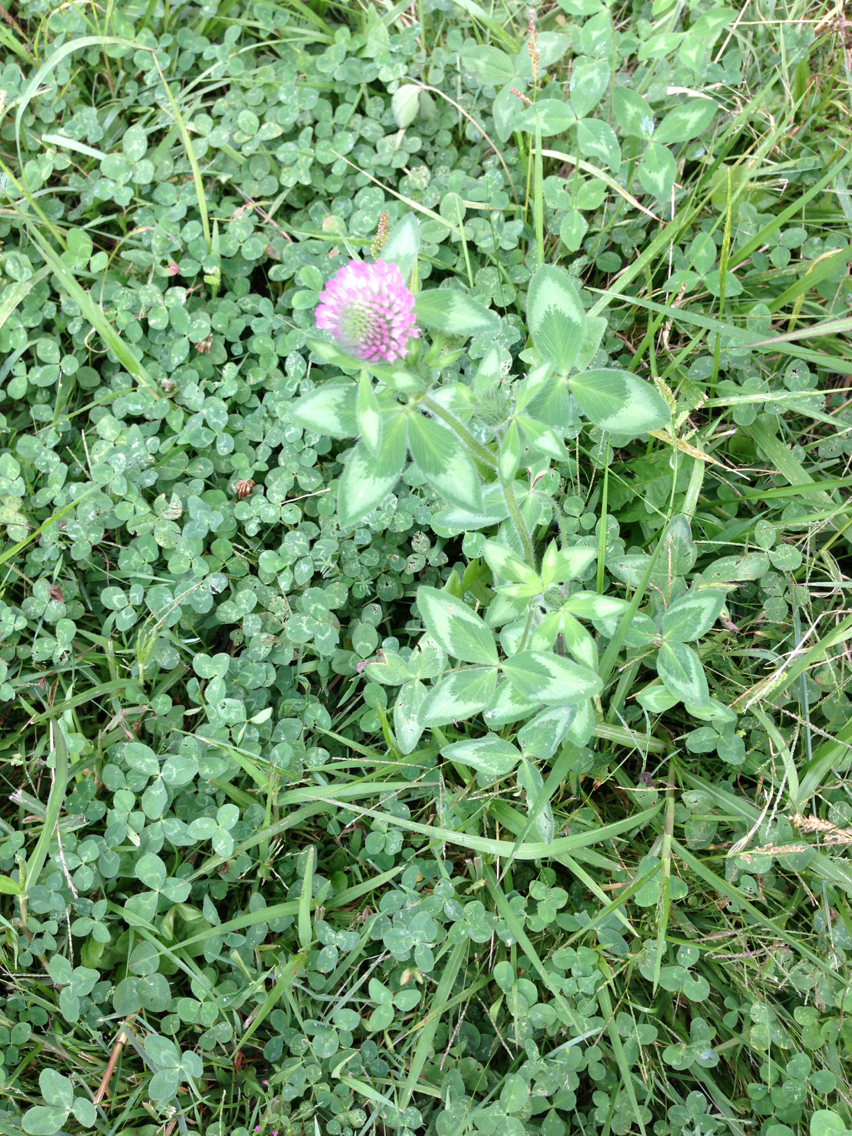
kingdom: Plantae
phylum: Tracheophyta
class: Magnoliopsida
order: Fabales
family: Fabaceae
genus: Trifolium
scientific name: Trifolium pratense
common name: Red clover
